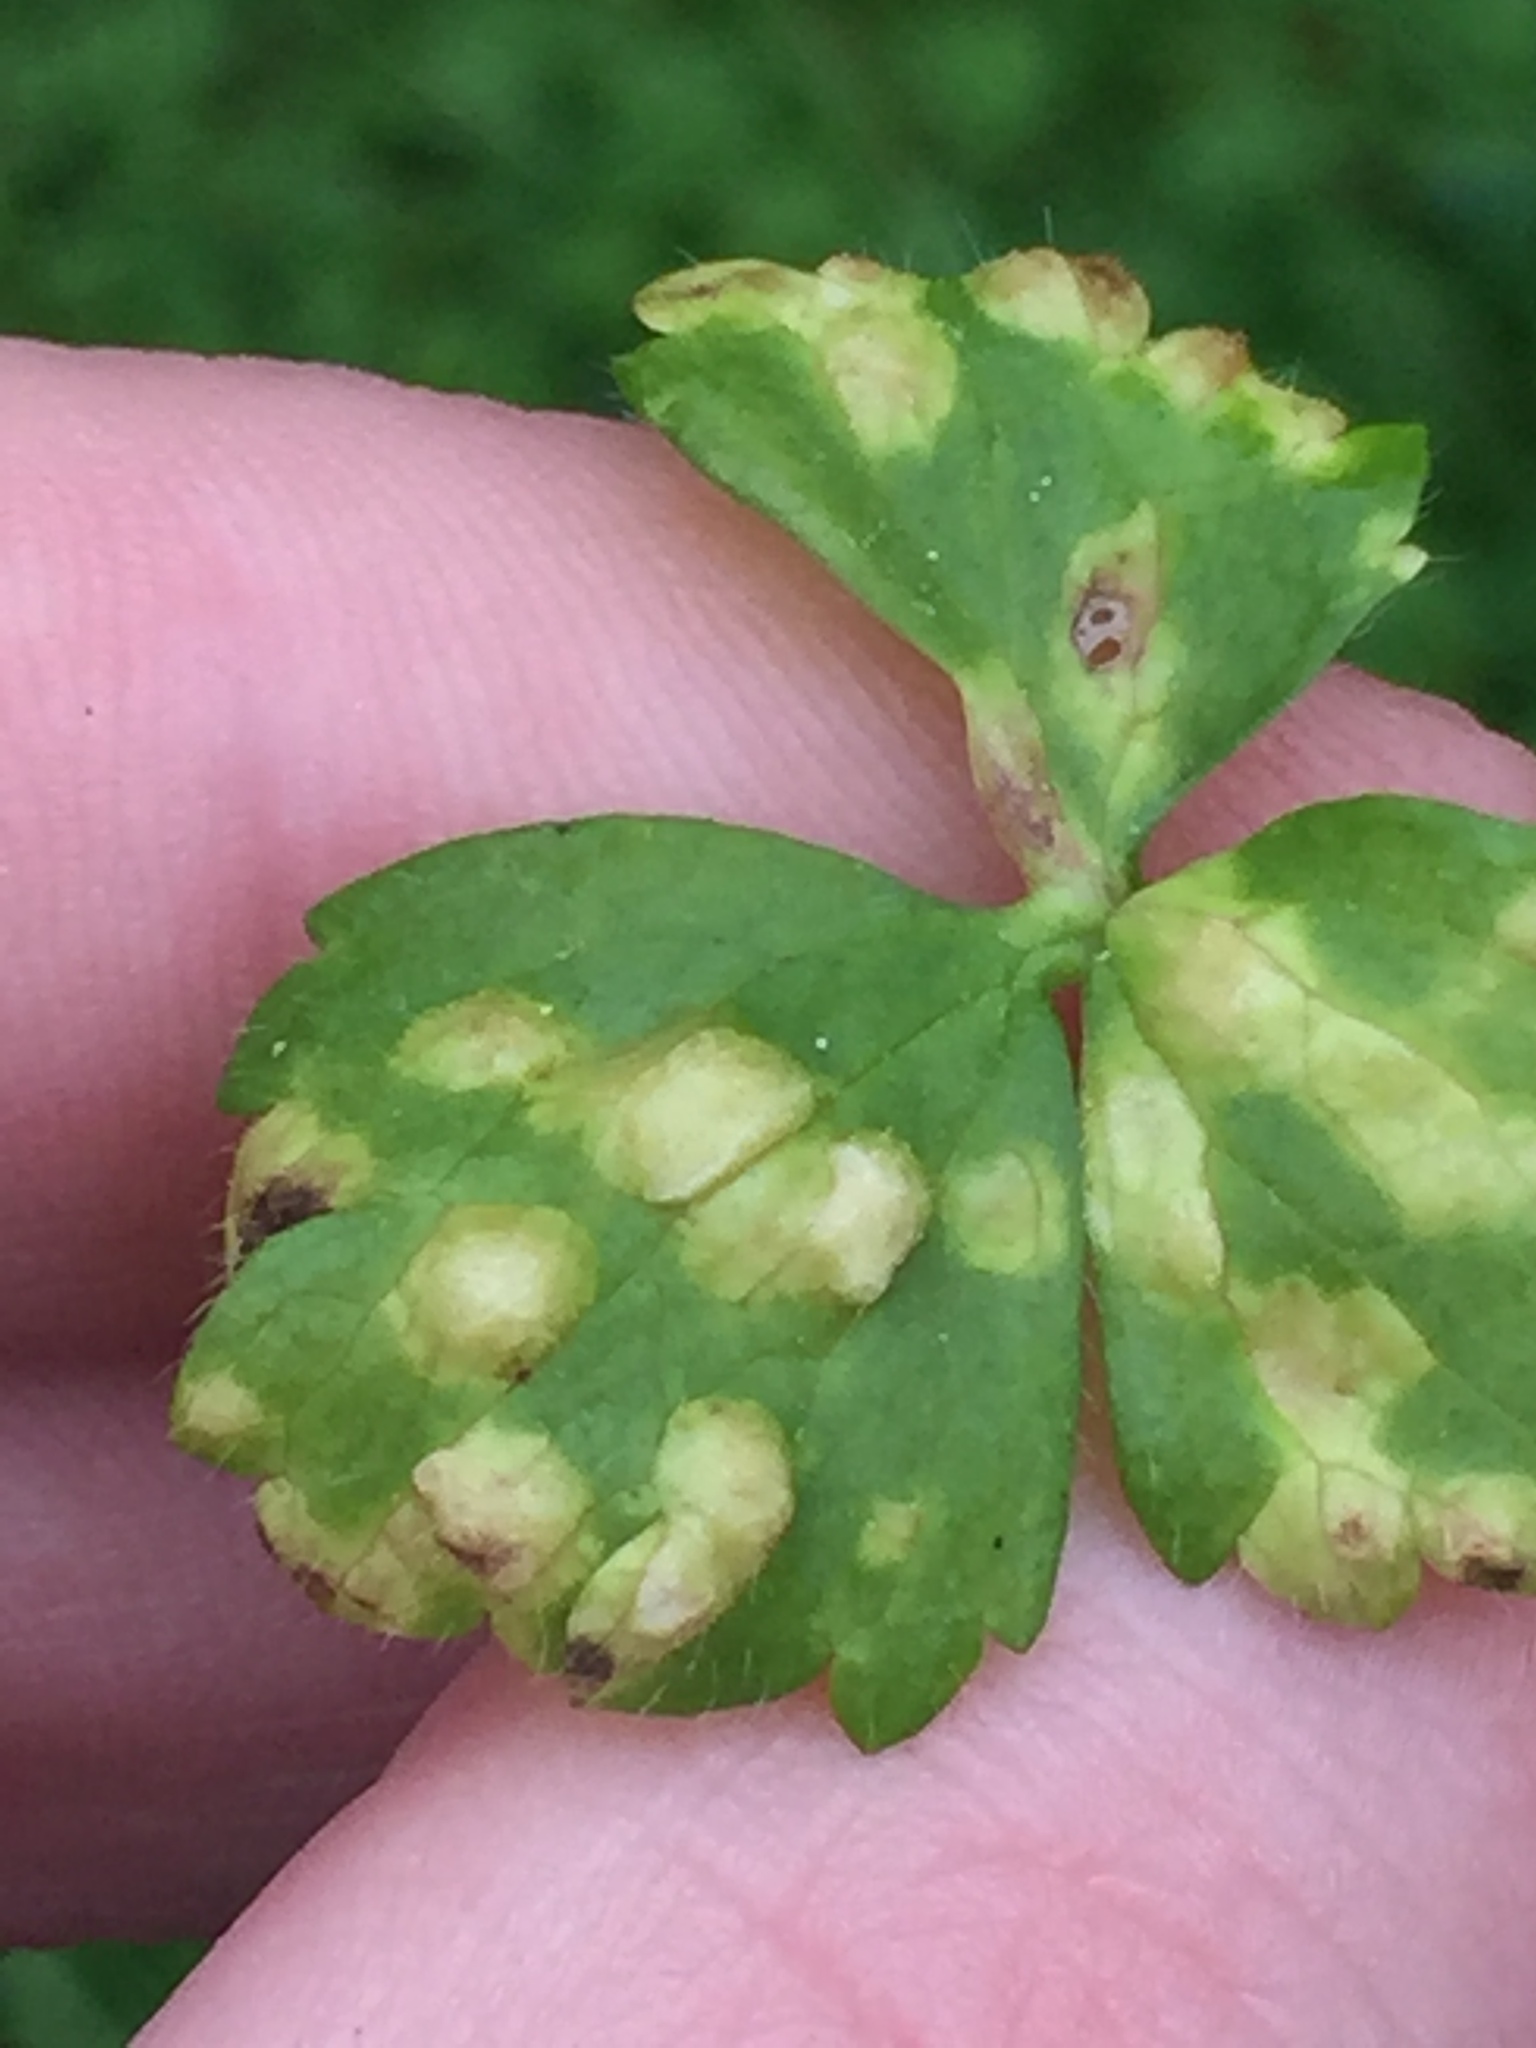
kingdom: Fungi
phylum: Basidiomycota
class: Exobasidiomycetes
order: Entylomatales
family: Entylomataceae
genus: Entyloma
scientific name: Entyloma microsporum
